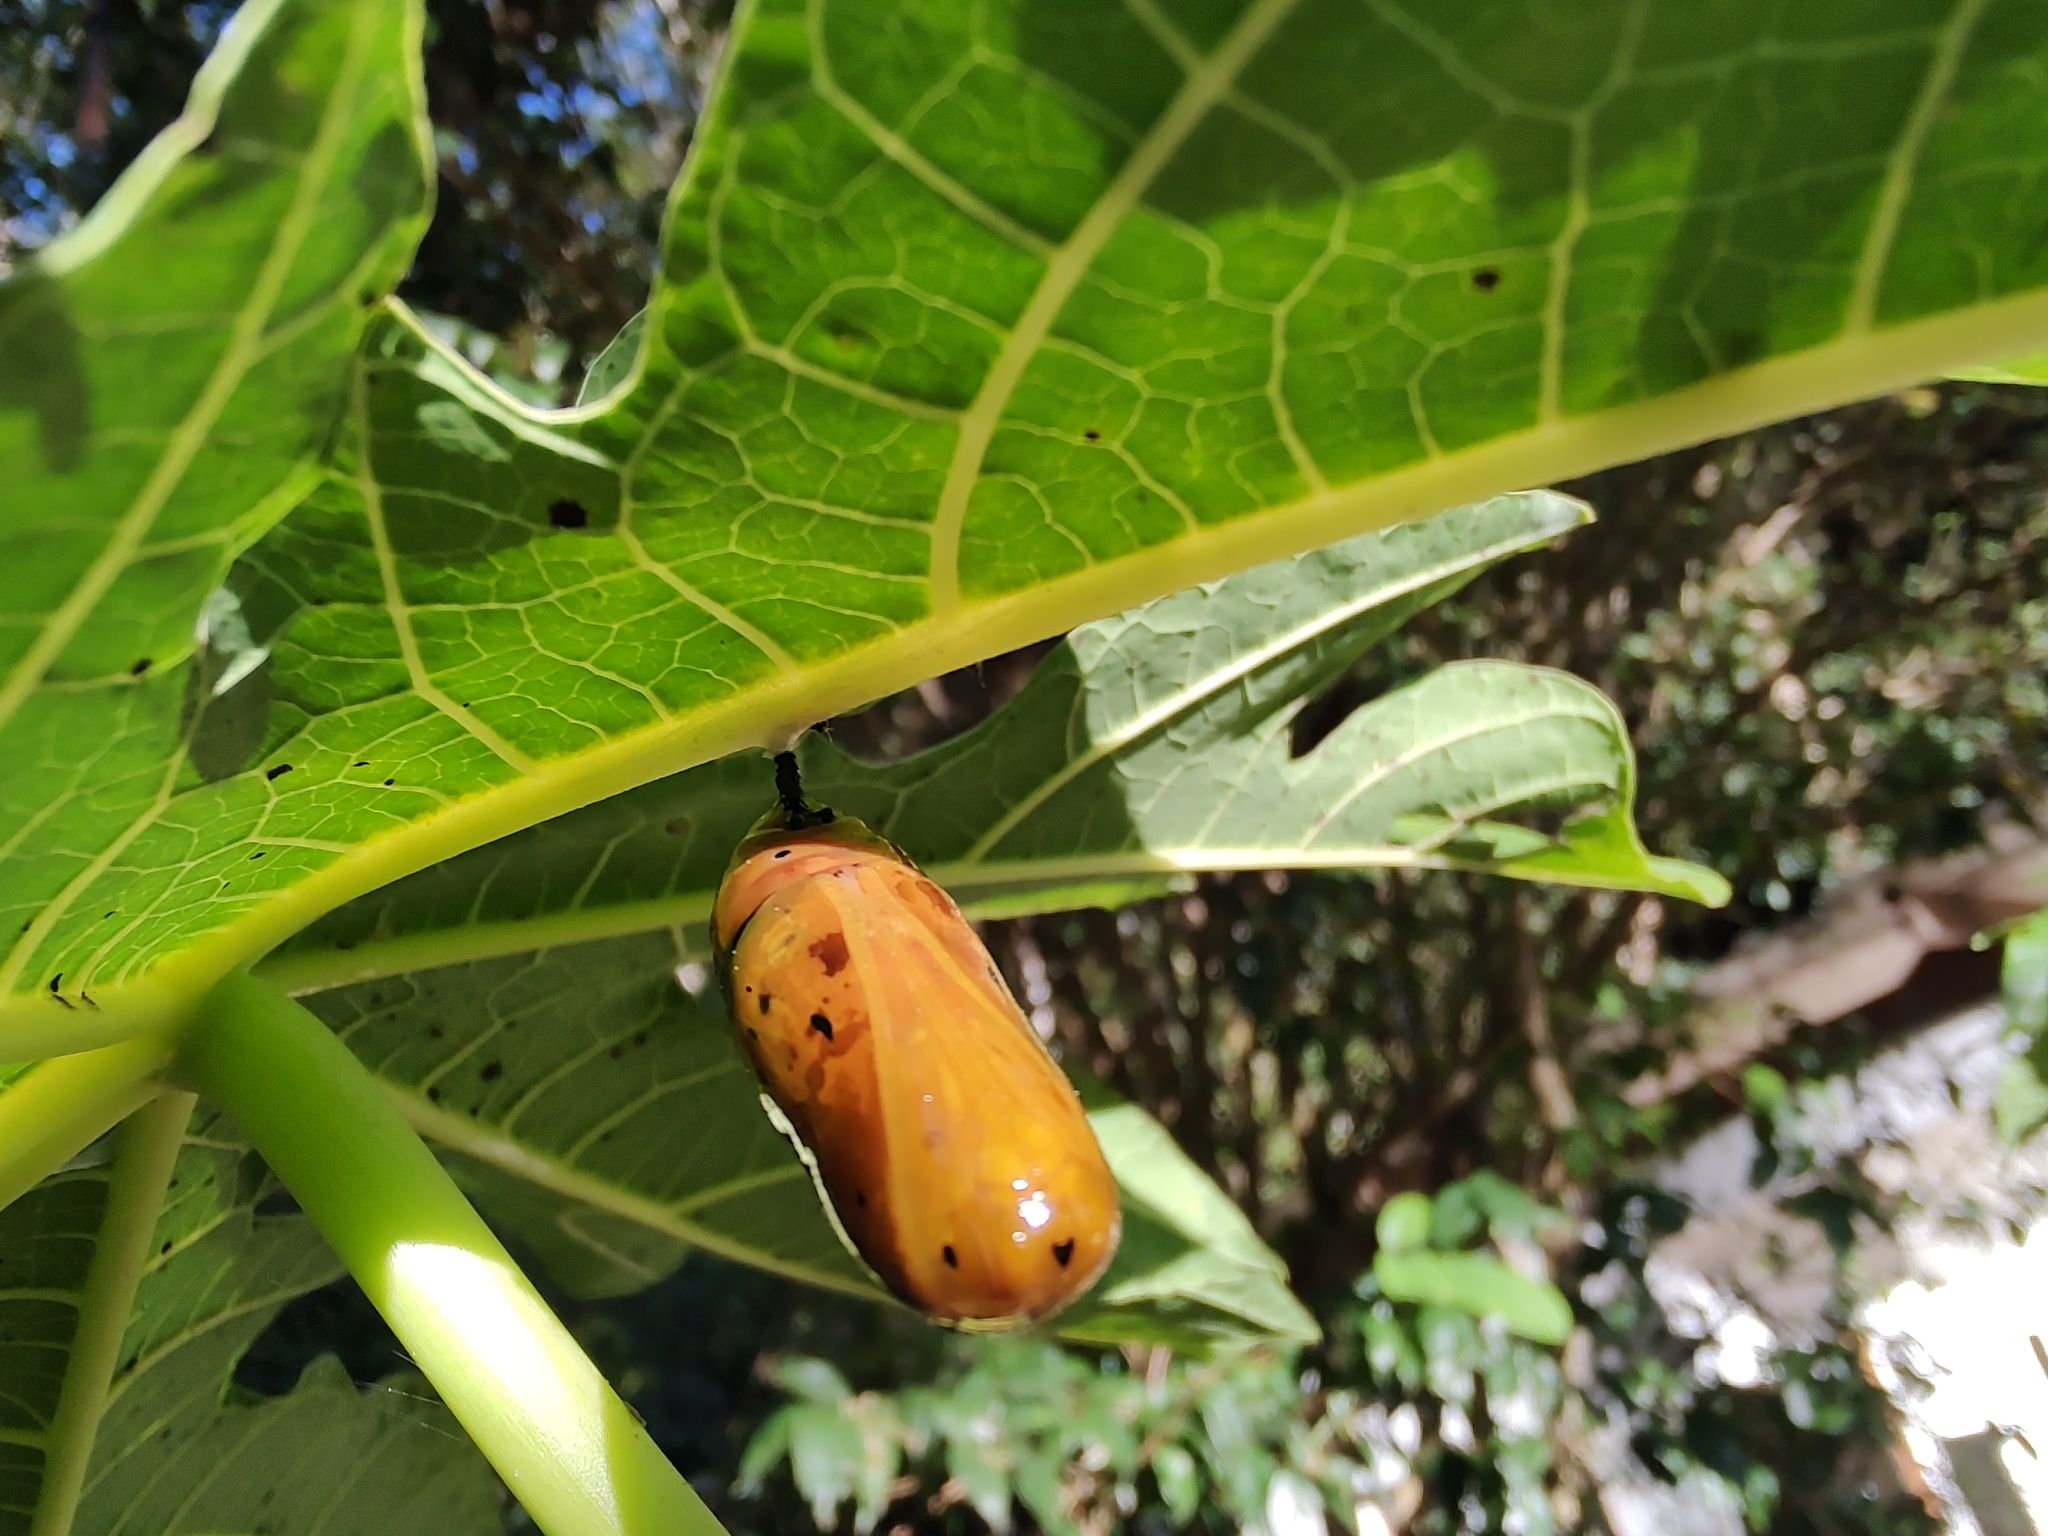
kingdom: Animalia
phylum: Arthropoda
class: Insecta
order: Lepidoptera
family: Nymphalidae
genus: Lycorea
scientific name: Lycorea cleobaea
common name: Tiger mimic-queen
